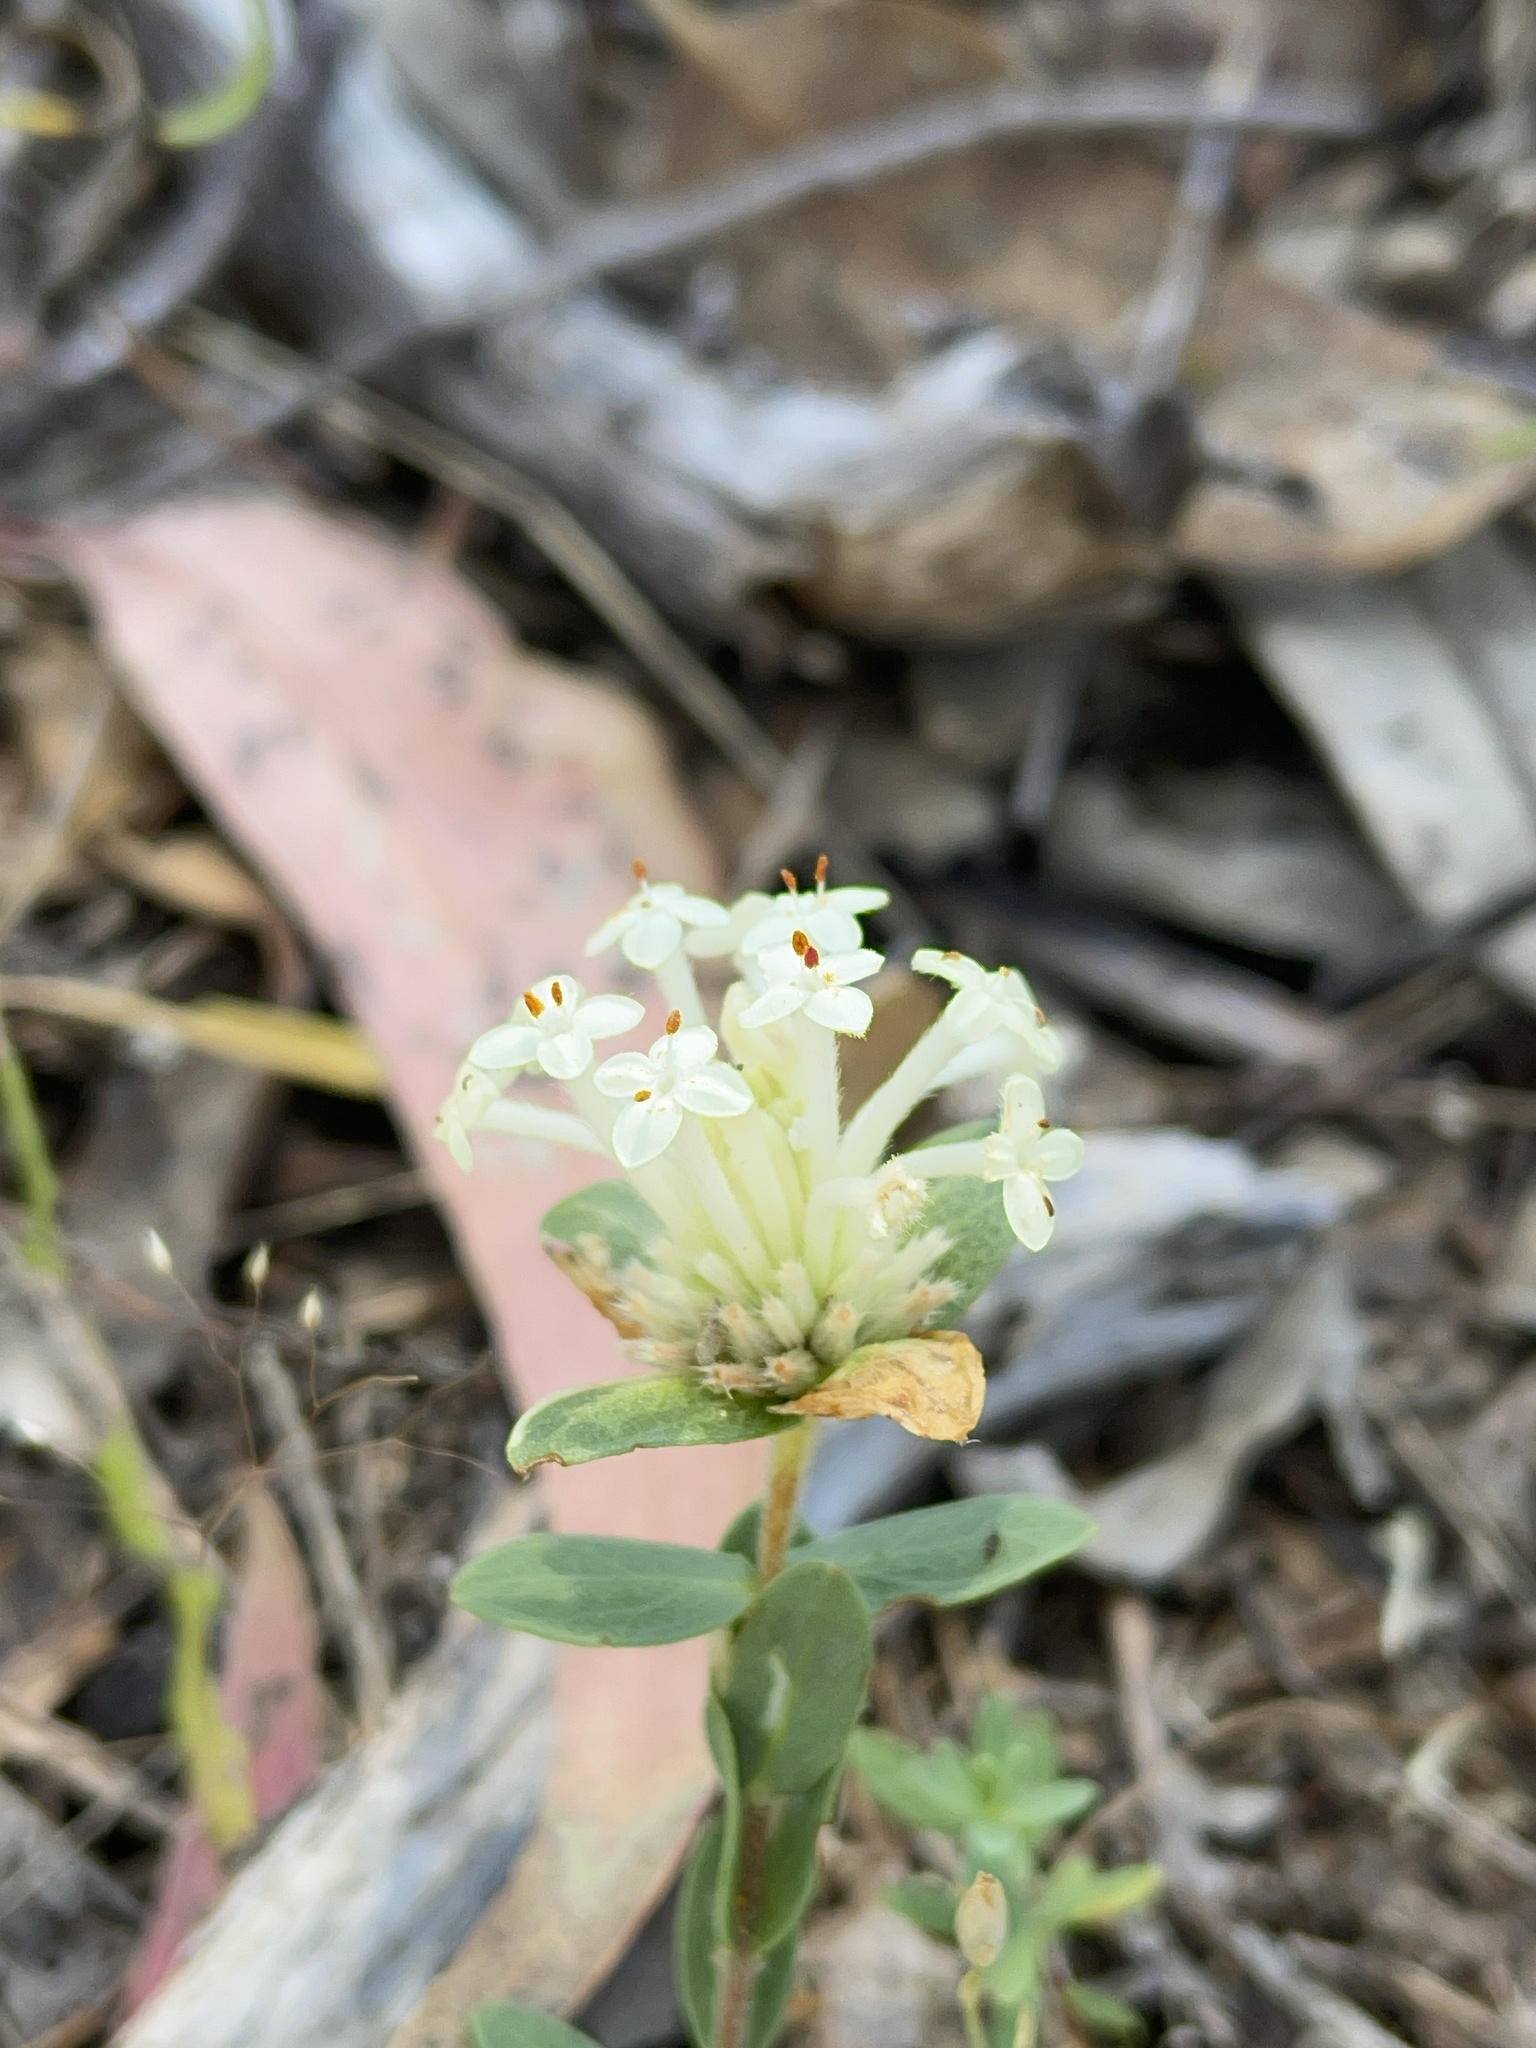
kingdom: Plantae
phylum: Tracheophyta
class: Magnoliopsida
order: Malvales
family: Thymelaeaceae
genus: Pimelea
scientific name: Pimelea humilis
